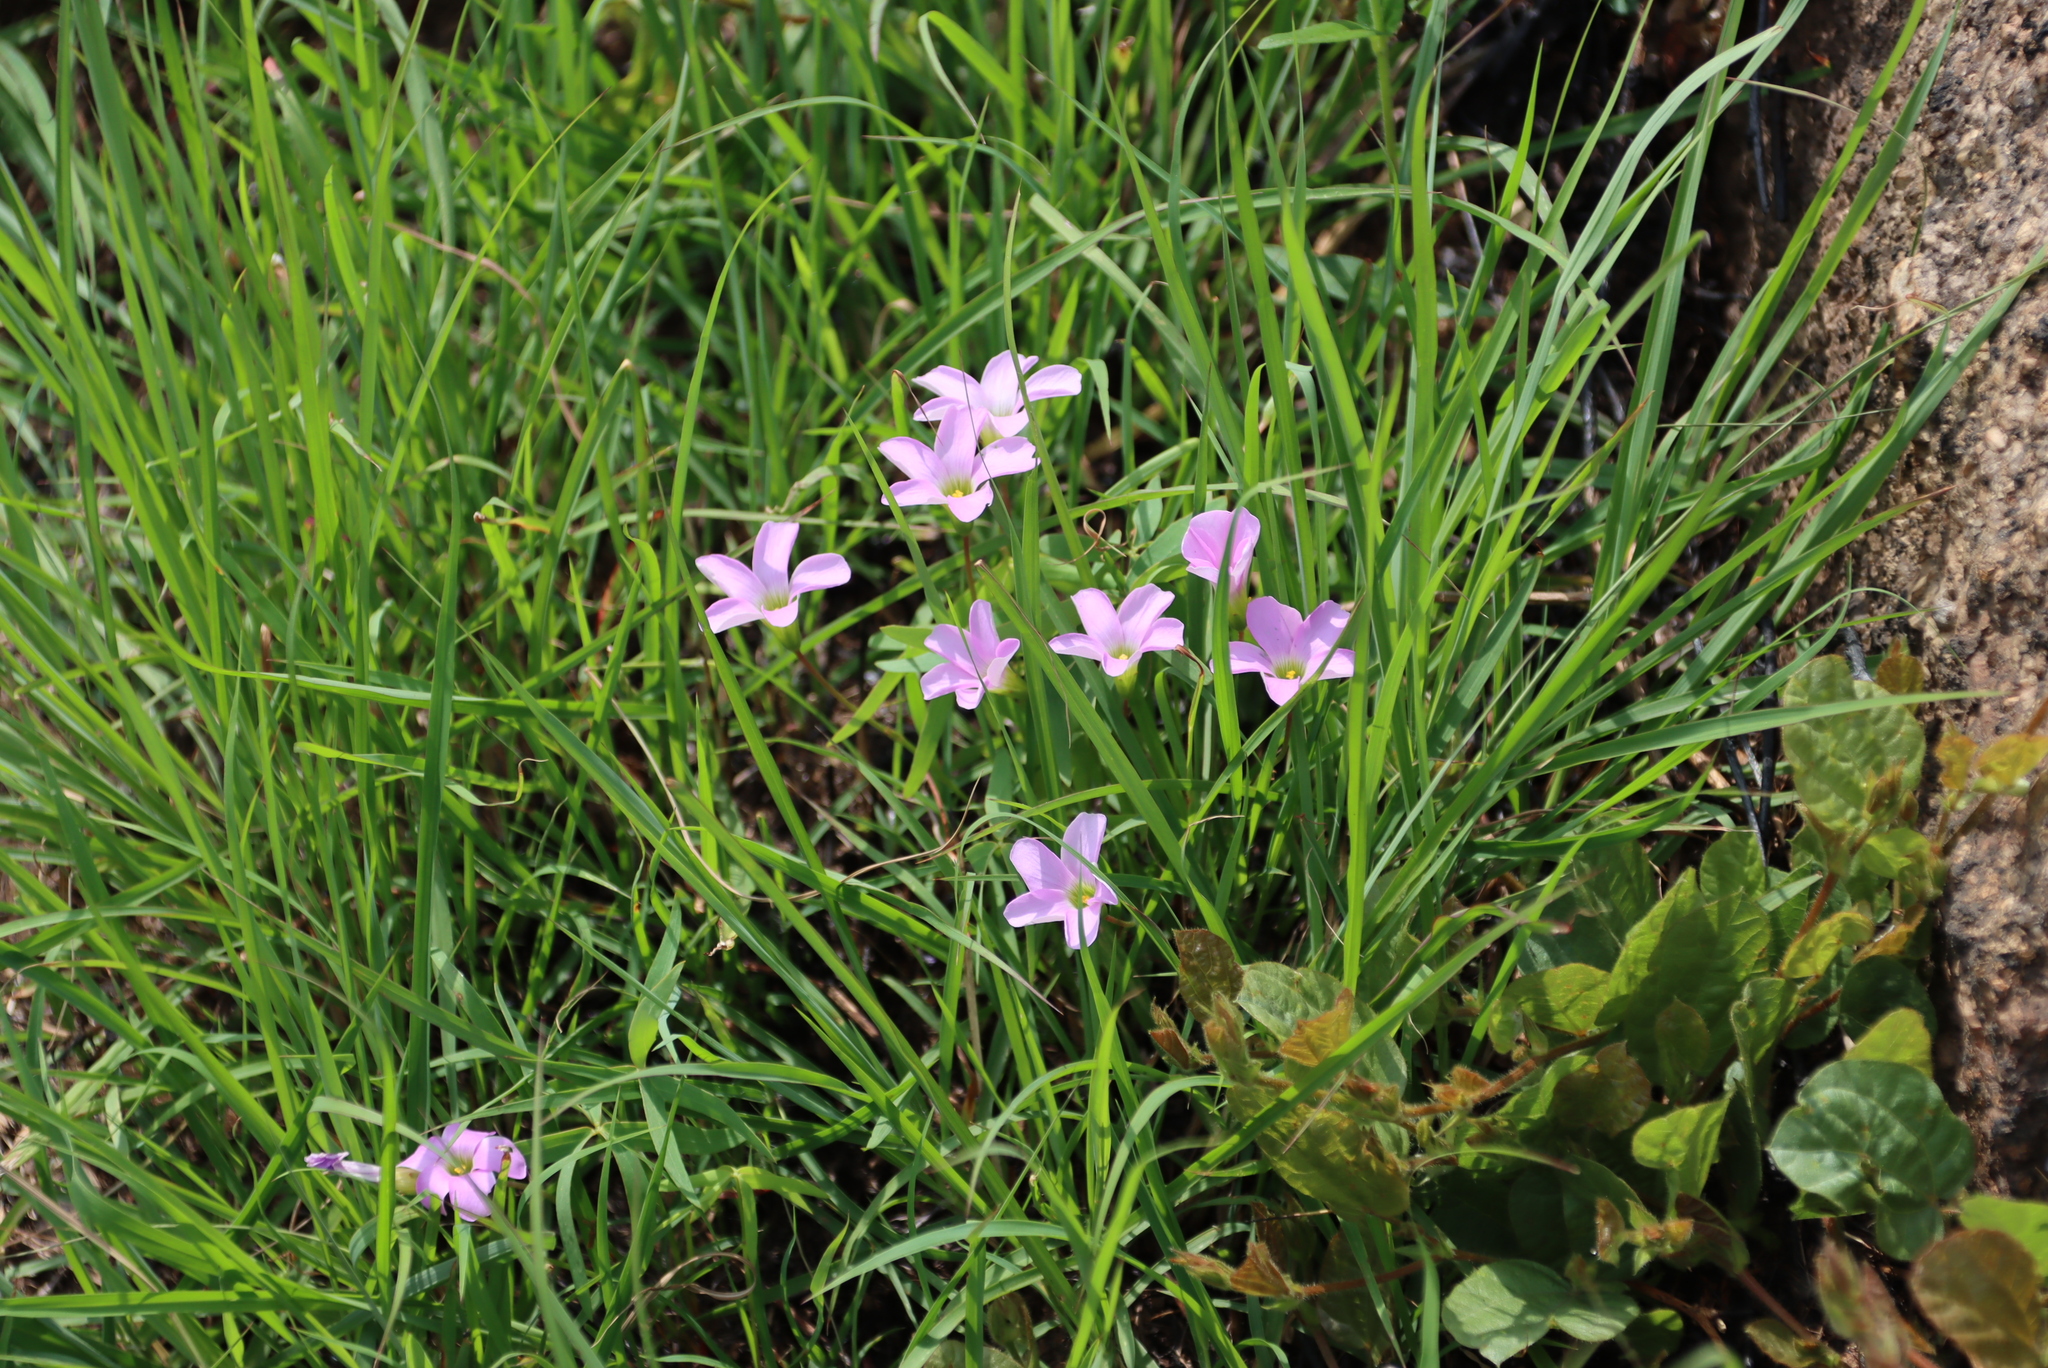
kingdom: Plantae
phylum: Tracheophyta
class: Magnoliopsida
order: Oxalidales
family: Oxalidaceae
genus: Oxalis
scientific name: Oxalis smithiana
